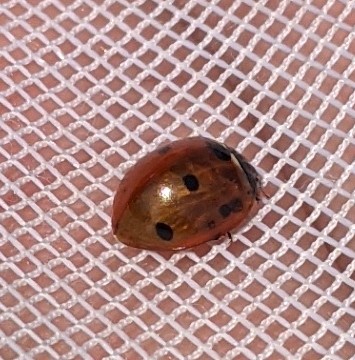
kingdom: Animalia
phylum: Arthropoda
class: Insecta
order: Coleoptera
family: Coccinellidae
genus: Coccinella
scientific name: Coccinella septempunctata
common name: Sevenspotted lady beetle
